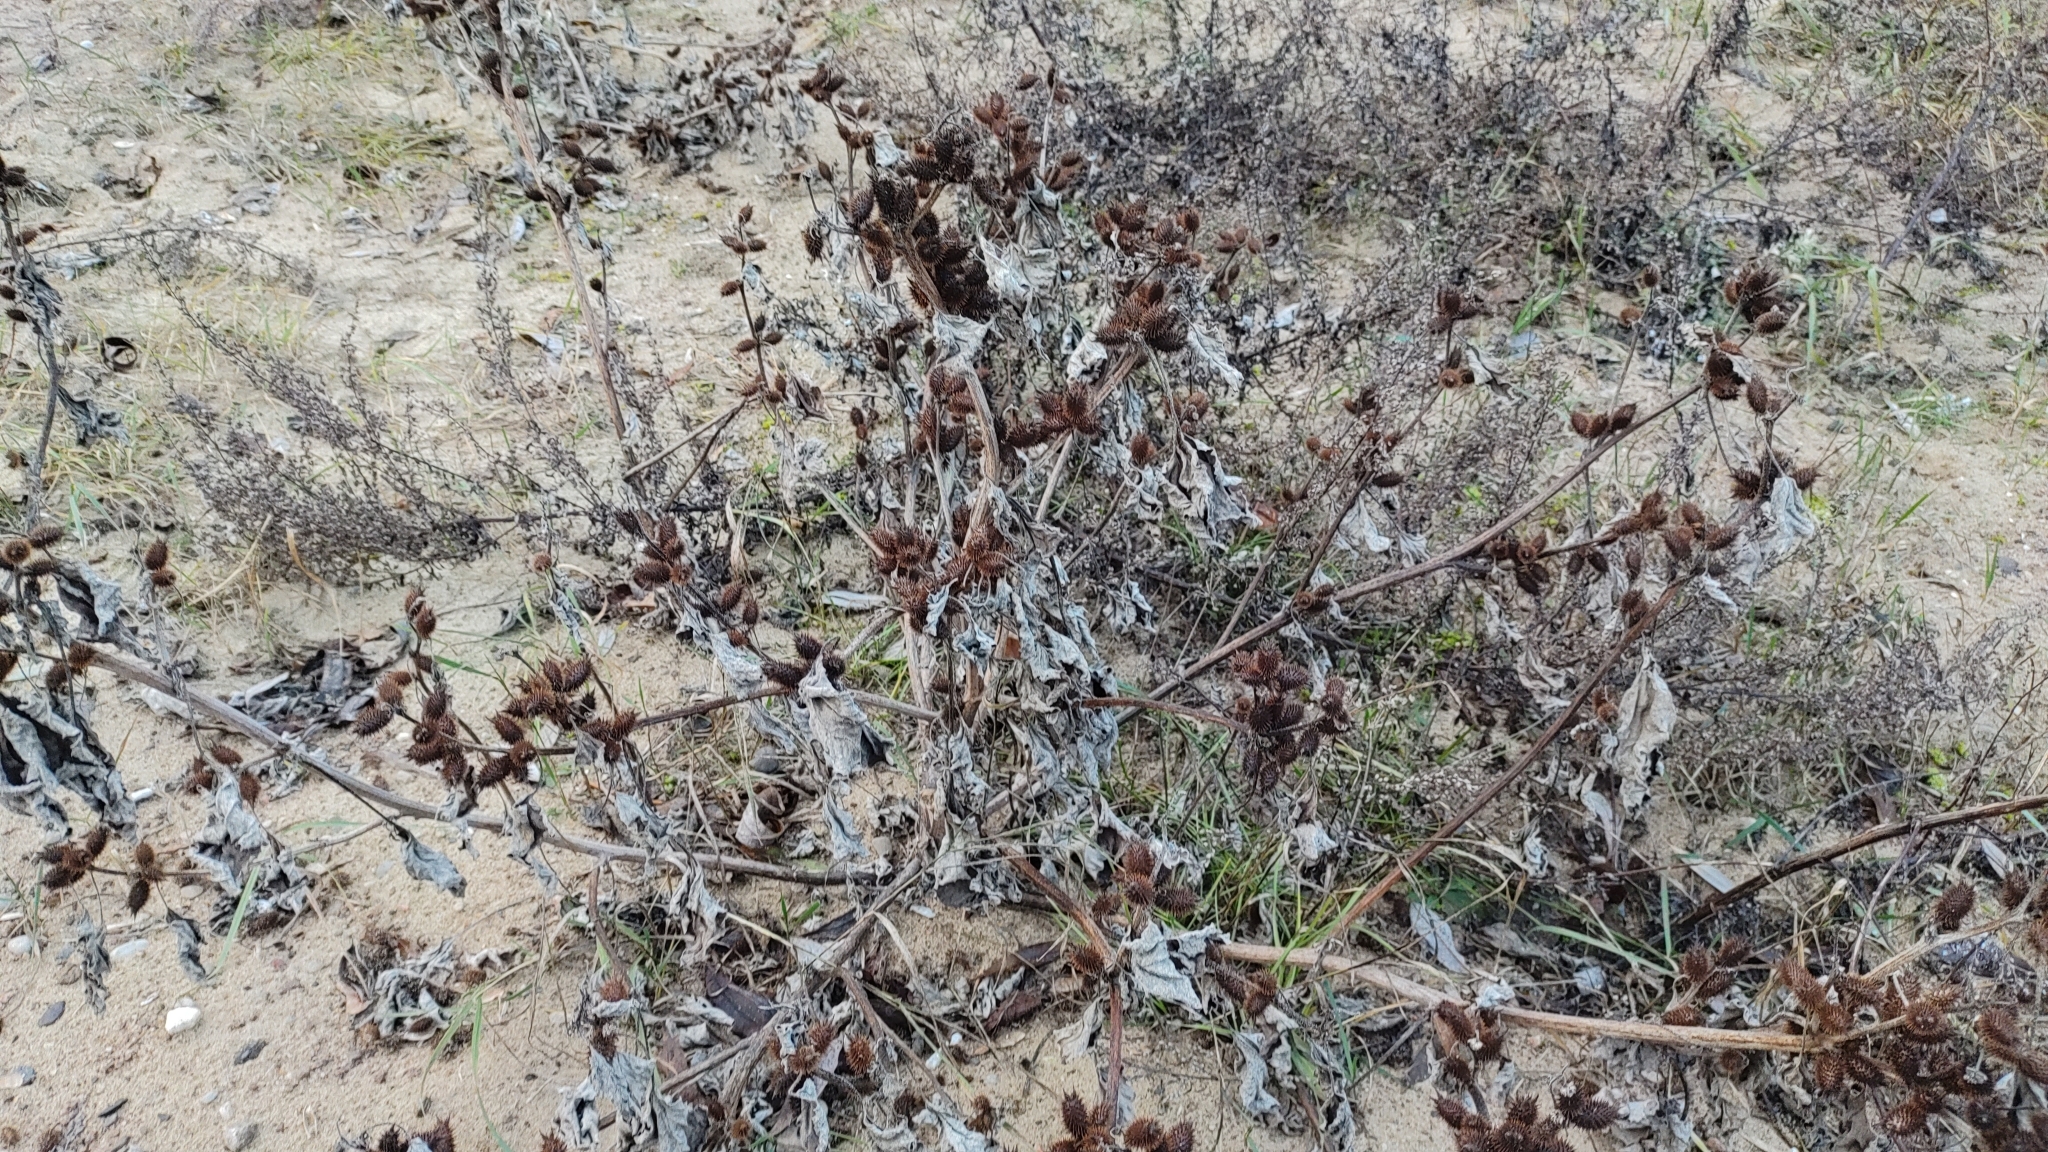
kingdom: Plantae
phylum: Tracheophyta
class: Magnoliopsida
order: Asterales
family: Asteraceae
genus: Xanthium
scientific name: Xanthium strumarium
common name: Rough cocklebur
